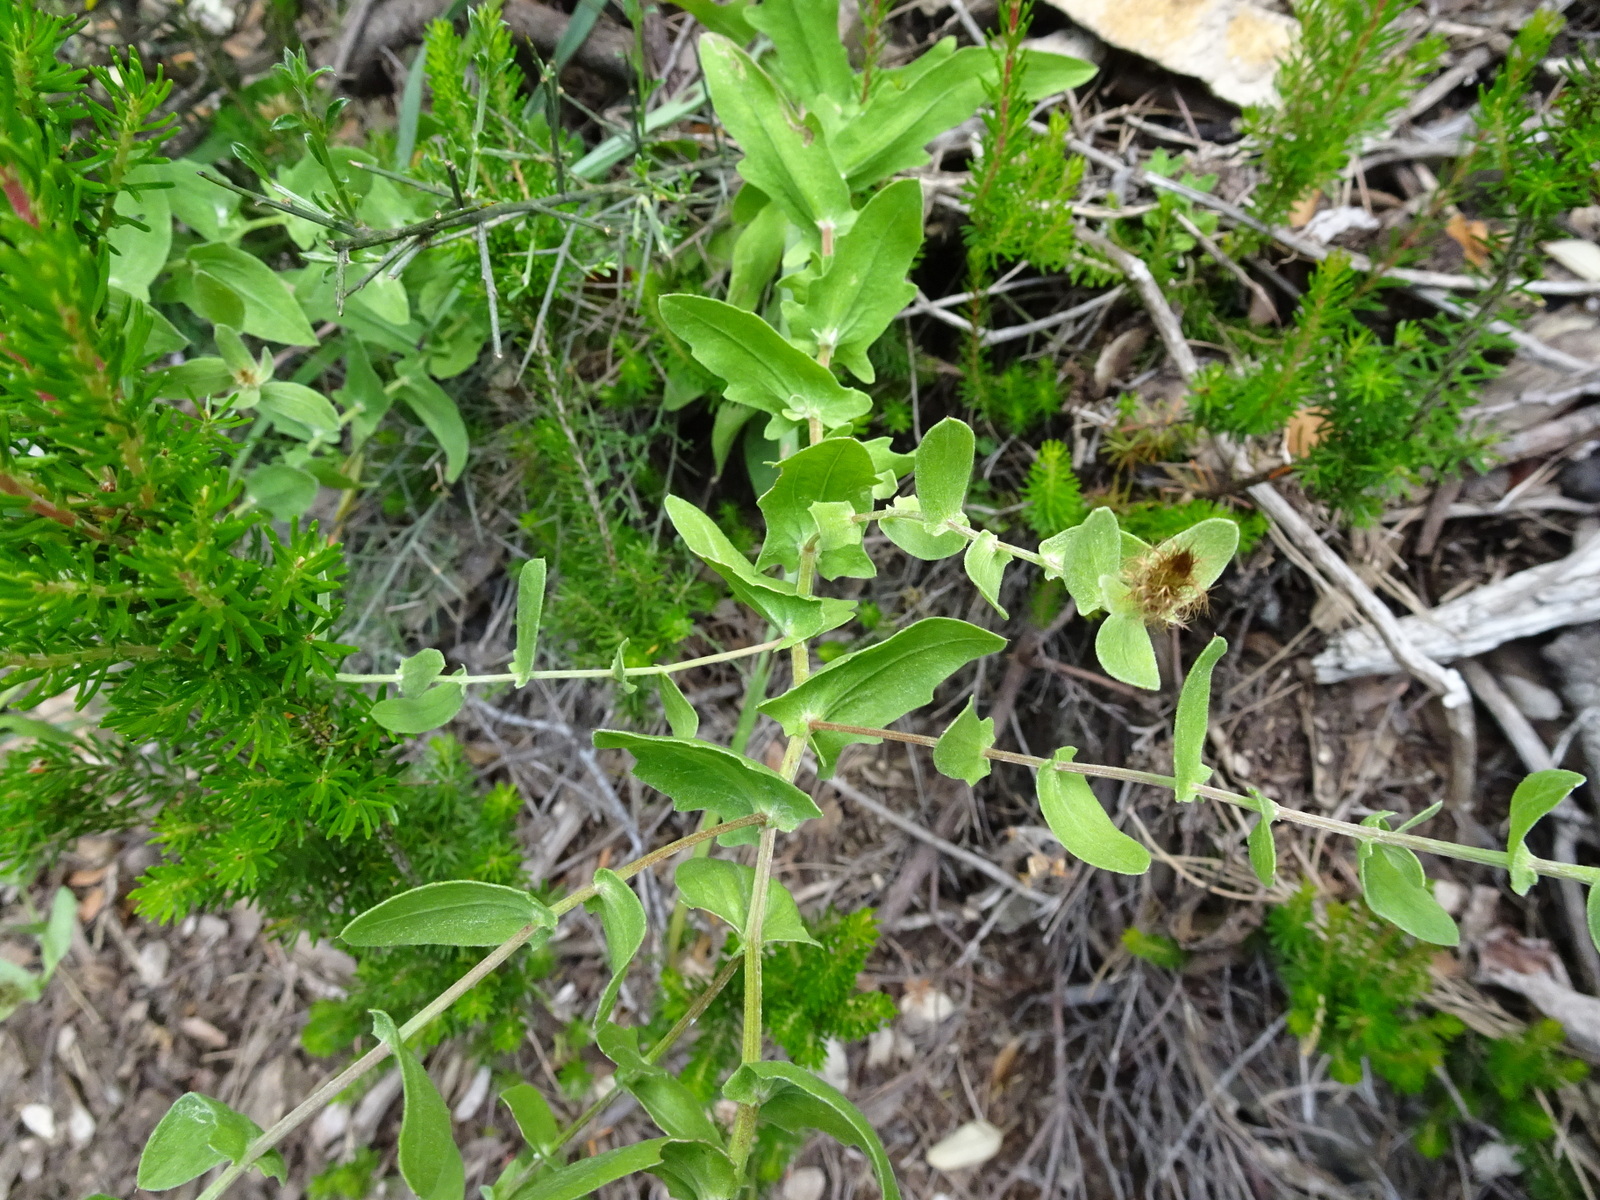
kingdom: Plantae
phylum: Tracheophyta
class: Magnoliopsida
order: Asterales
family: Asteraceae
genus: Centaurea
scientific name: Centaurea pectinata
